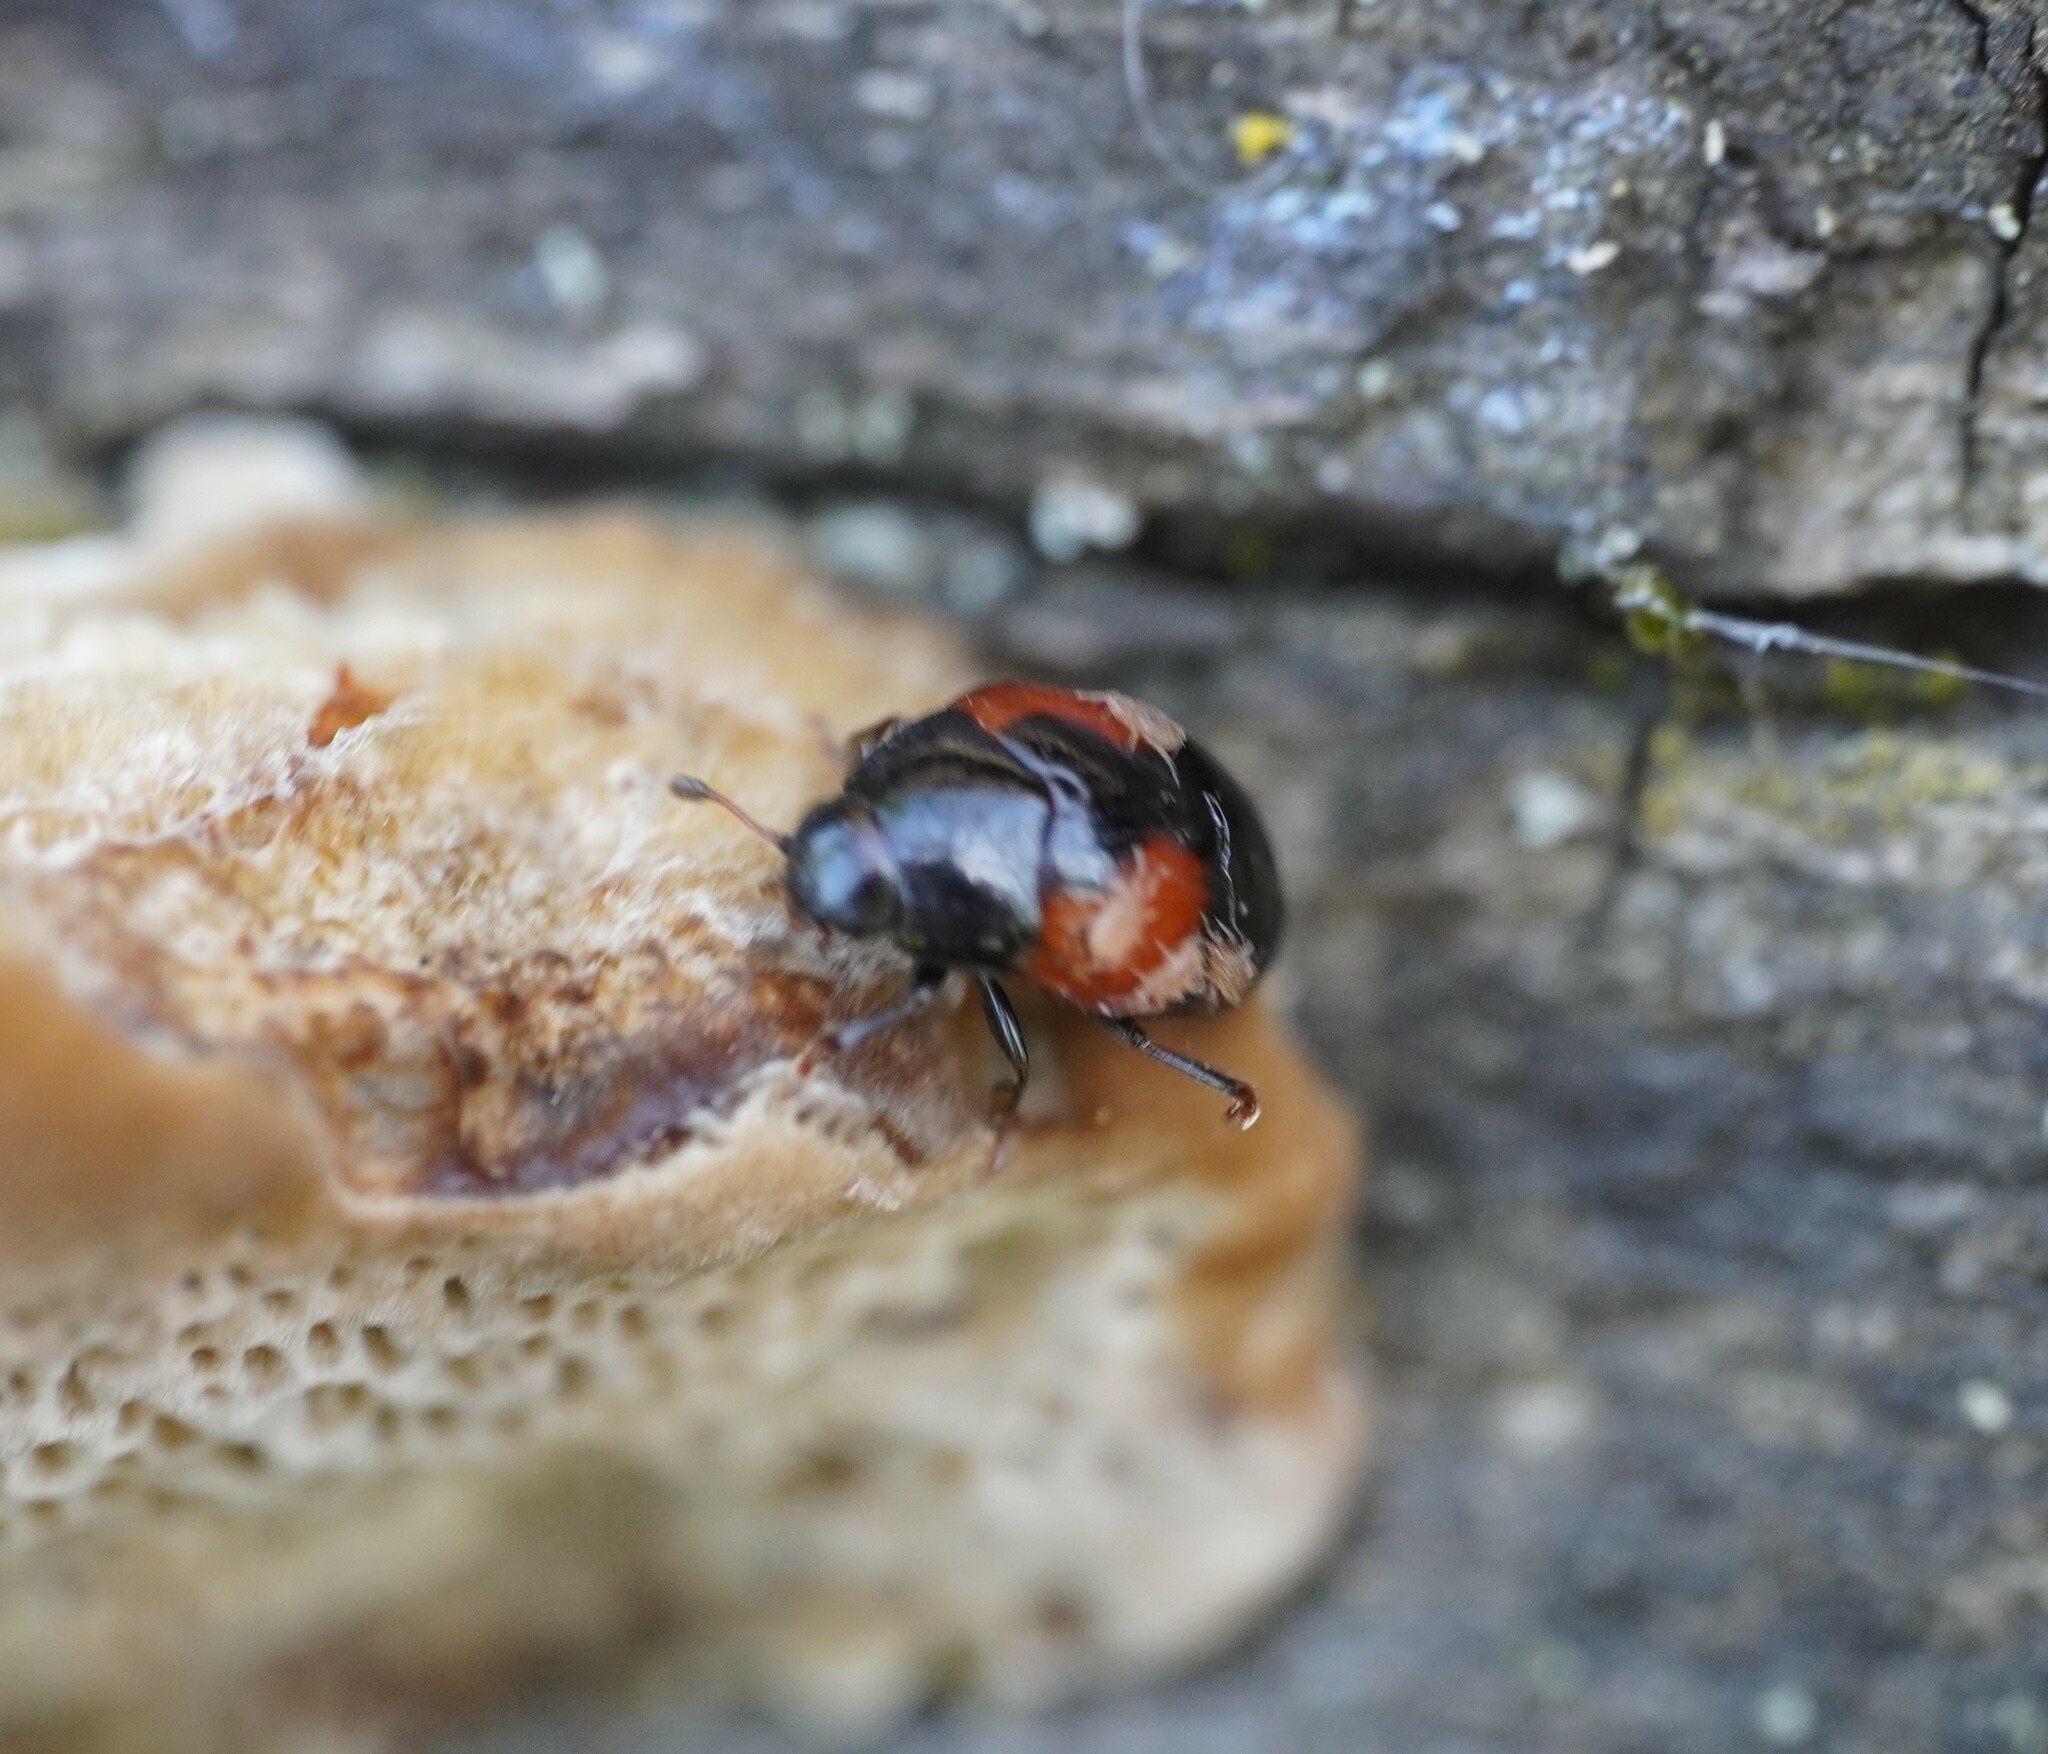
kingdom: Animalia
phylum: Arthropoda
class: Insecta
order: Coleoptera
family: Erotylidae
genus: Tritoma
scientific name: Tritoma bipustulata
